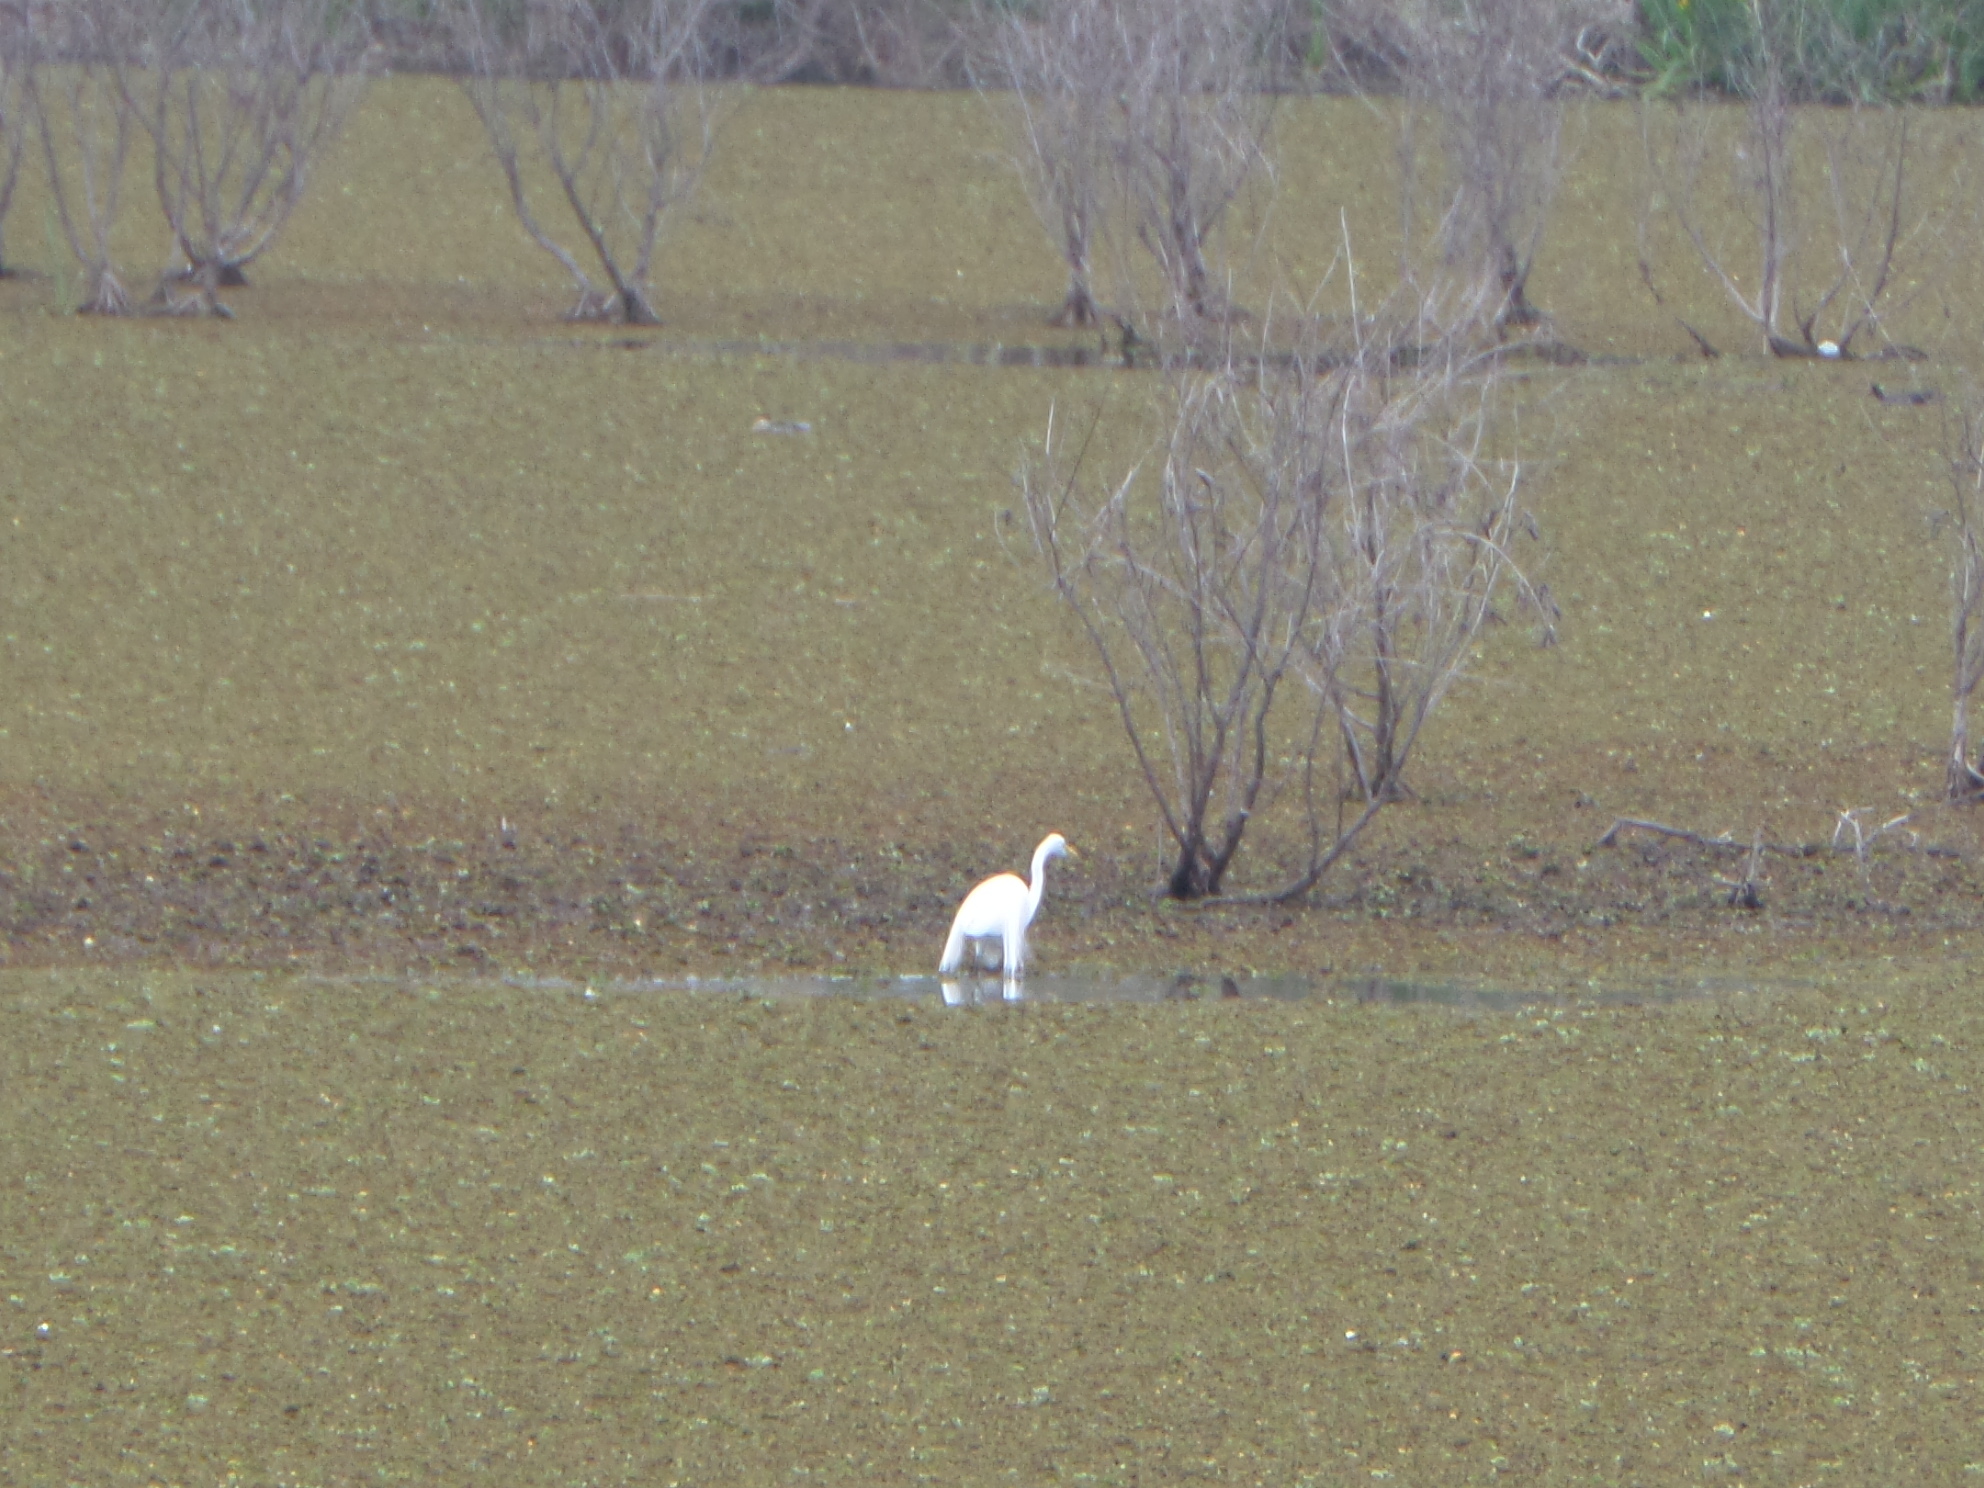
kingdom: Animalia
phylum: Chordata
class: Aves
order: Pelecaniformes
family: Ardeidae
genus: Ardea
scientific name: Ardea alba
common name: Great egret
